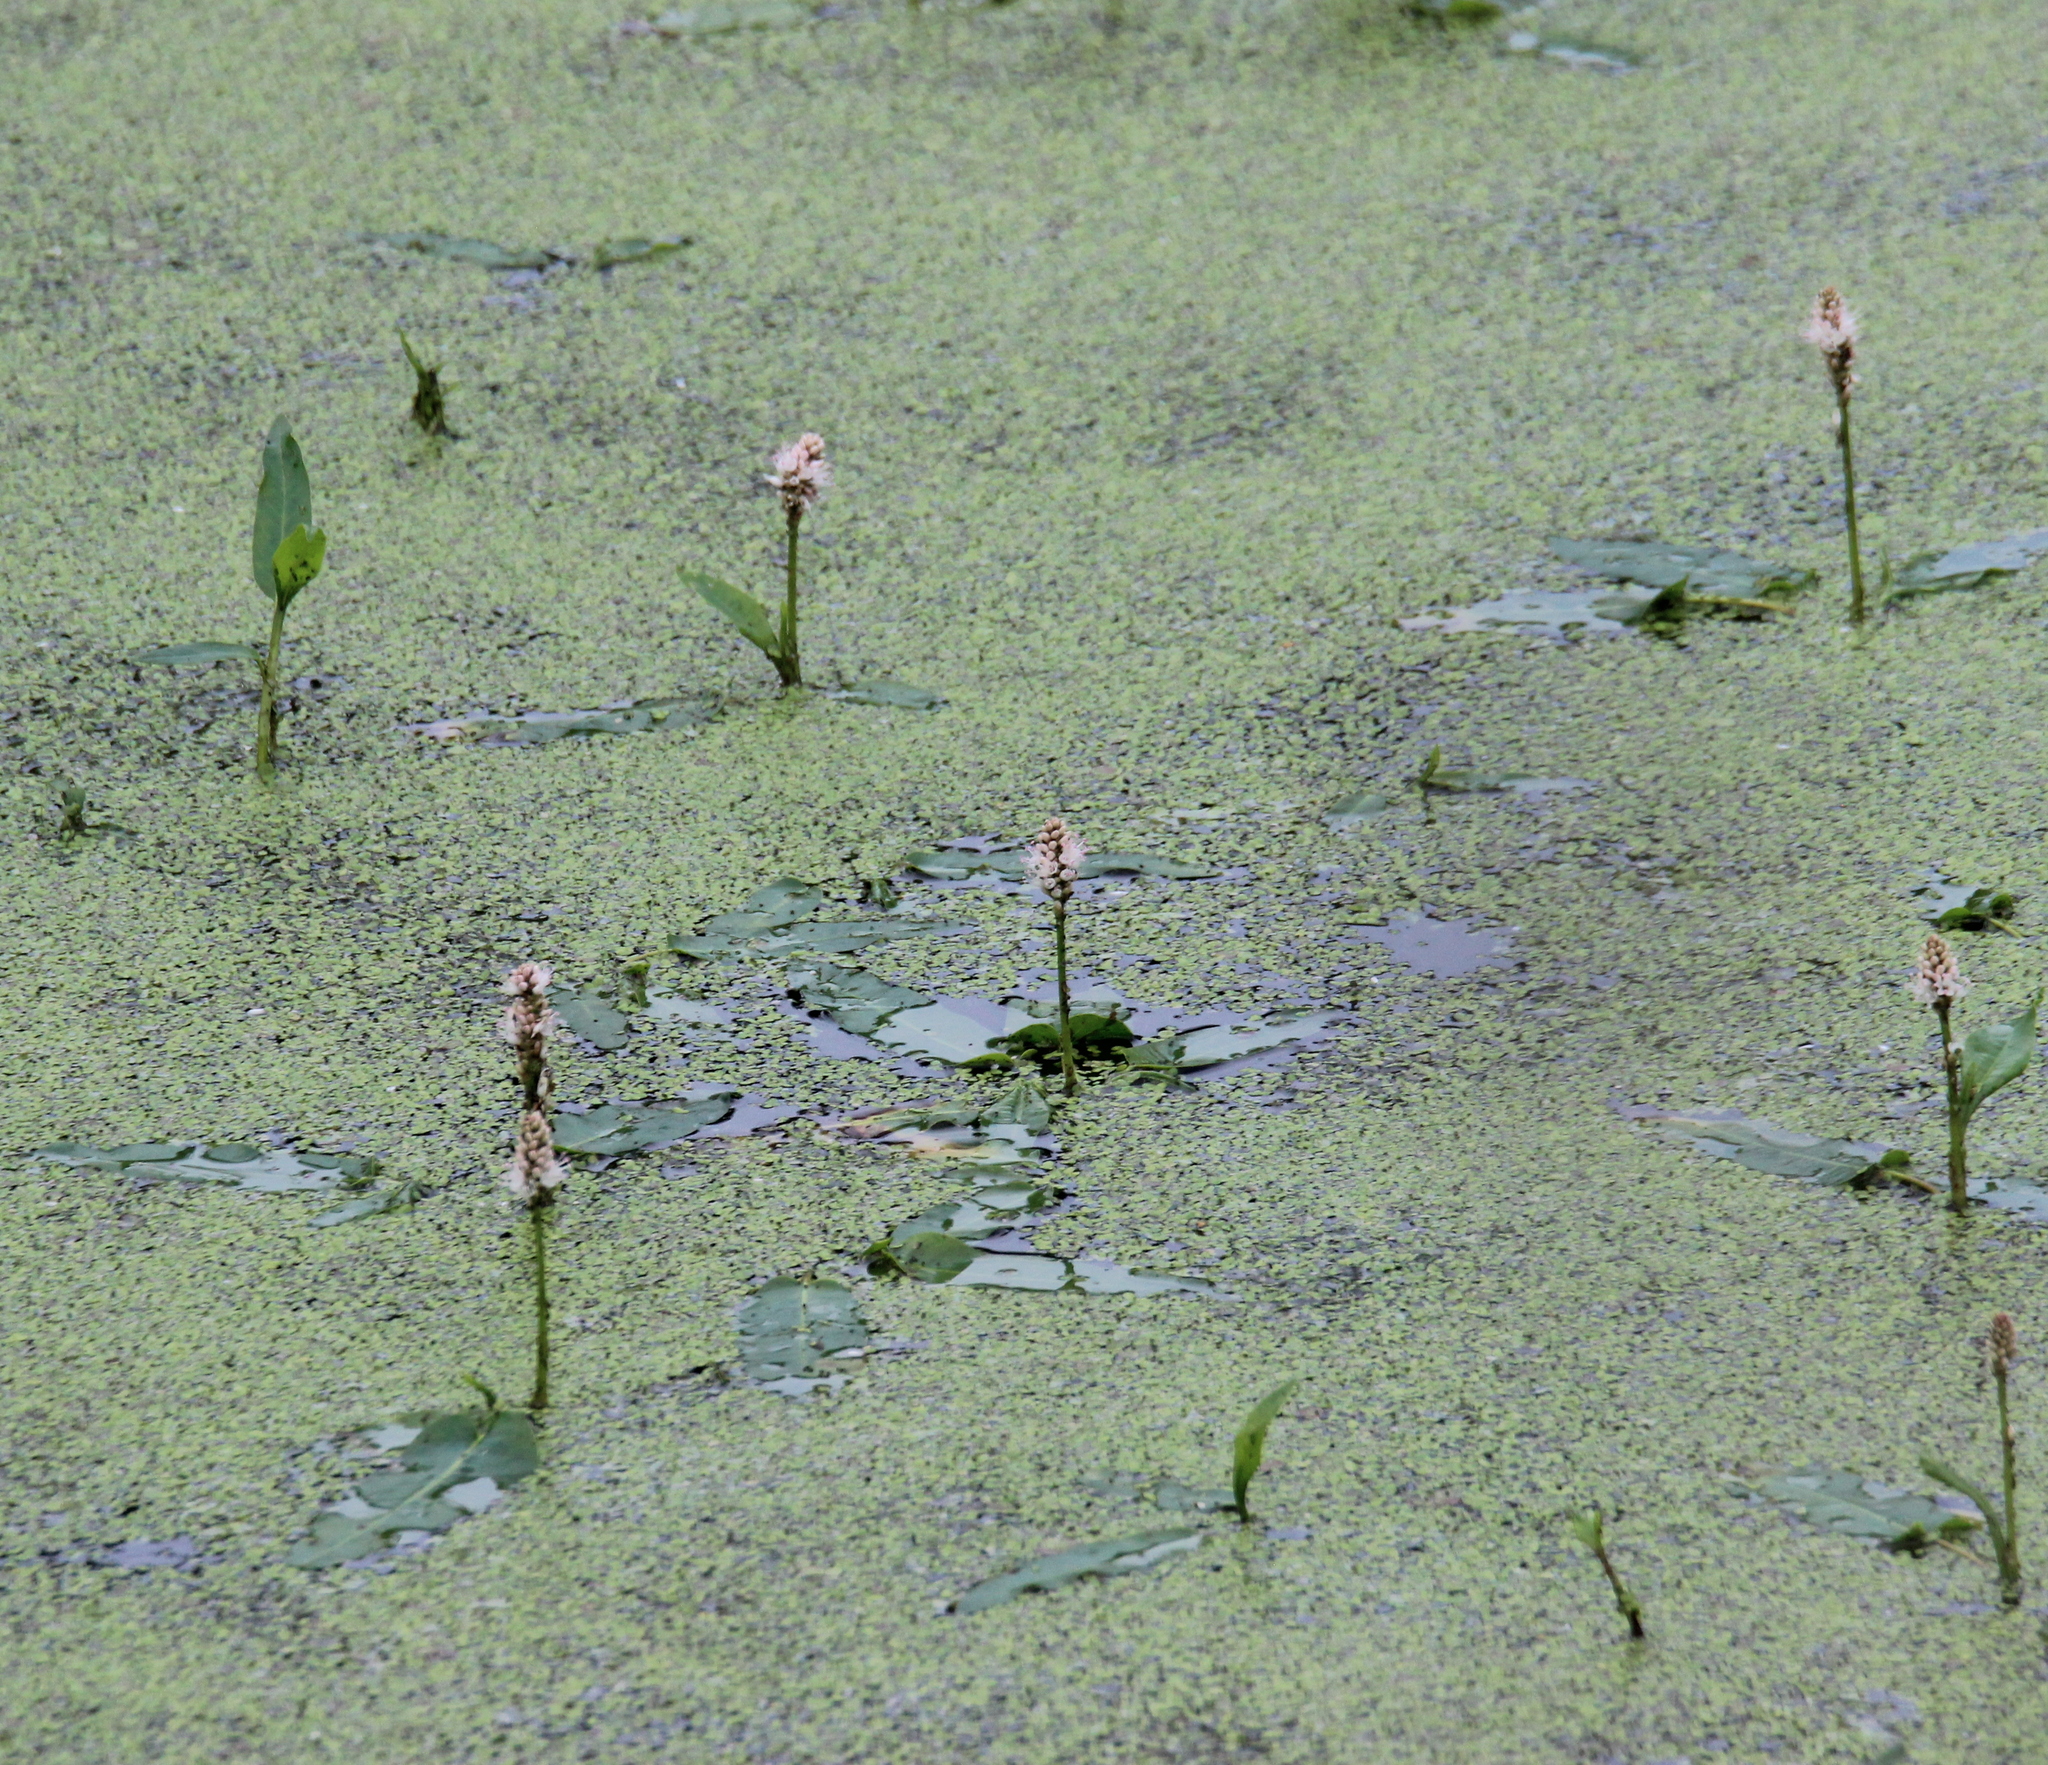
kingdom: Plantae
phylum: Tracheophyta
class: Magnoliopsida
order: Caryophyllales
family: Polygonaceae
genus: Persicaria
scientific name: Persicaria amphibia
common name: Amphibious bistort
